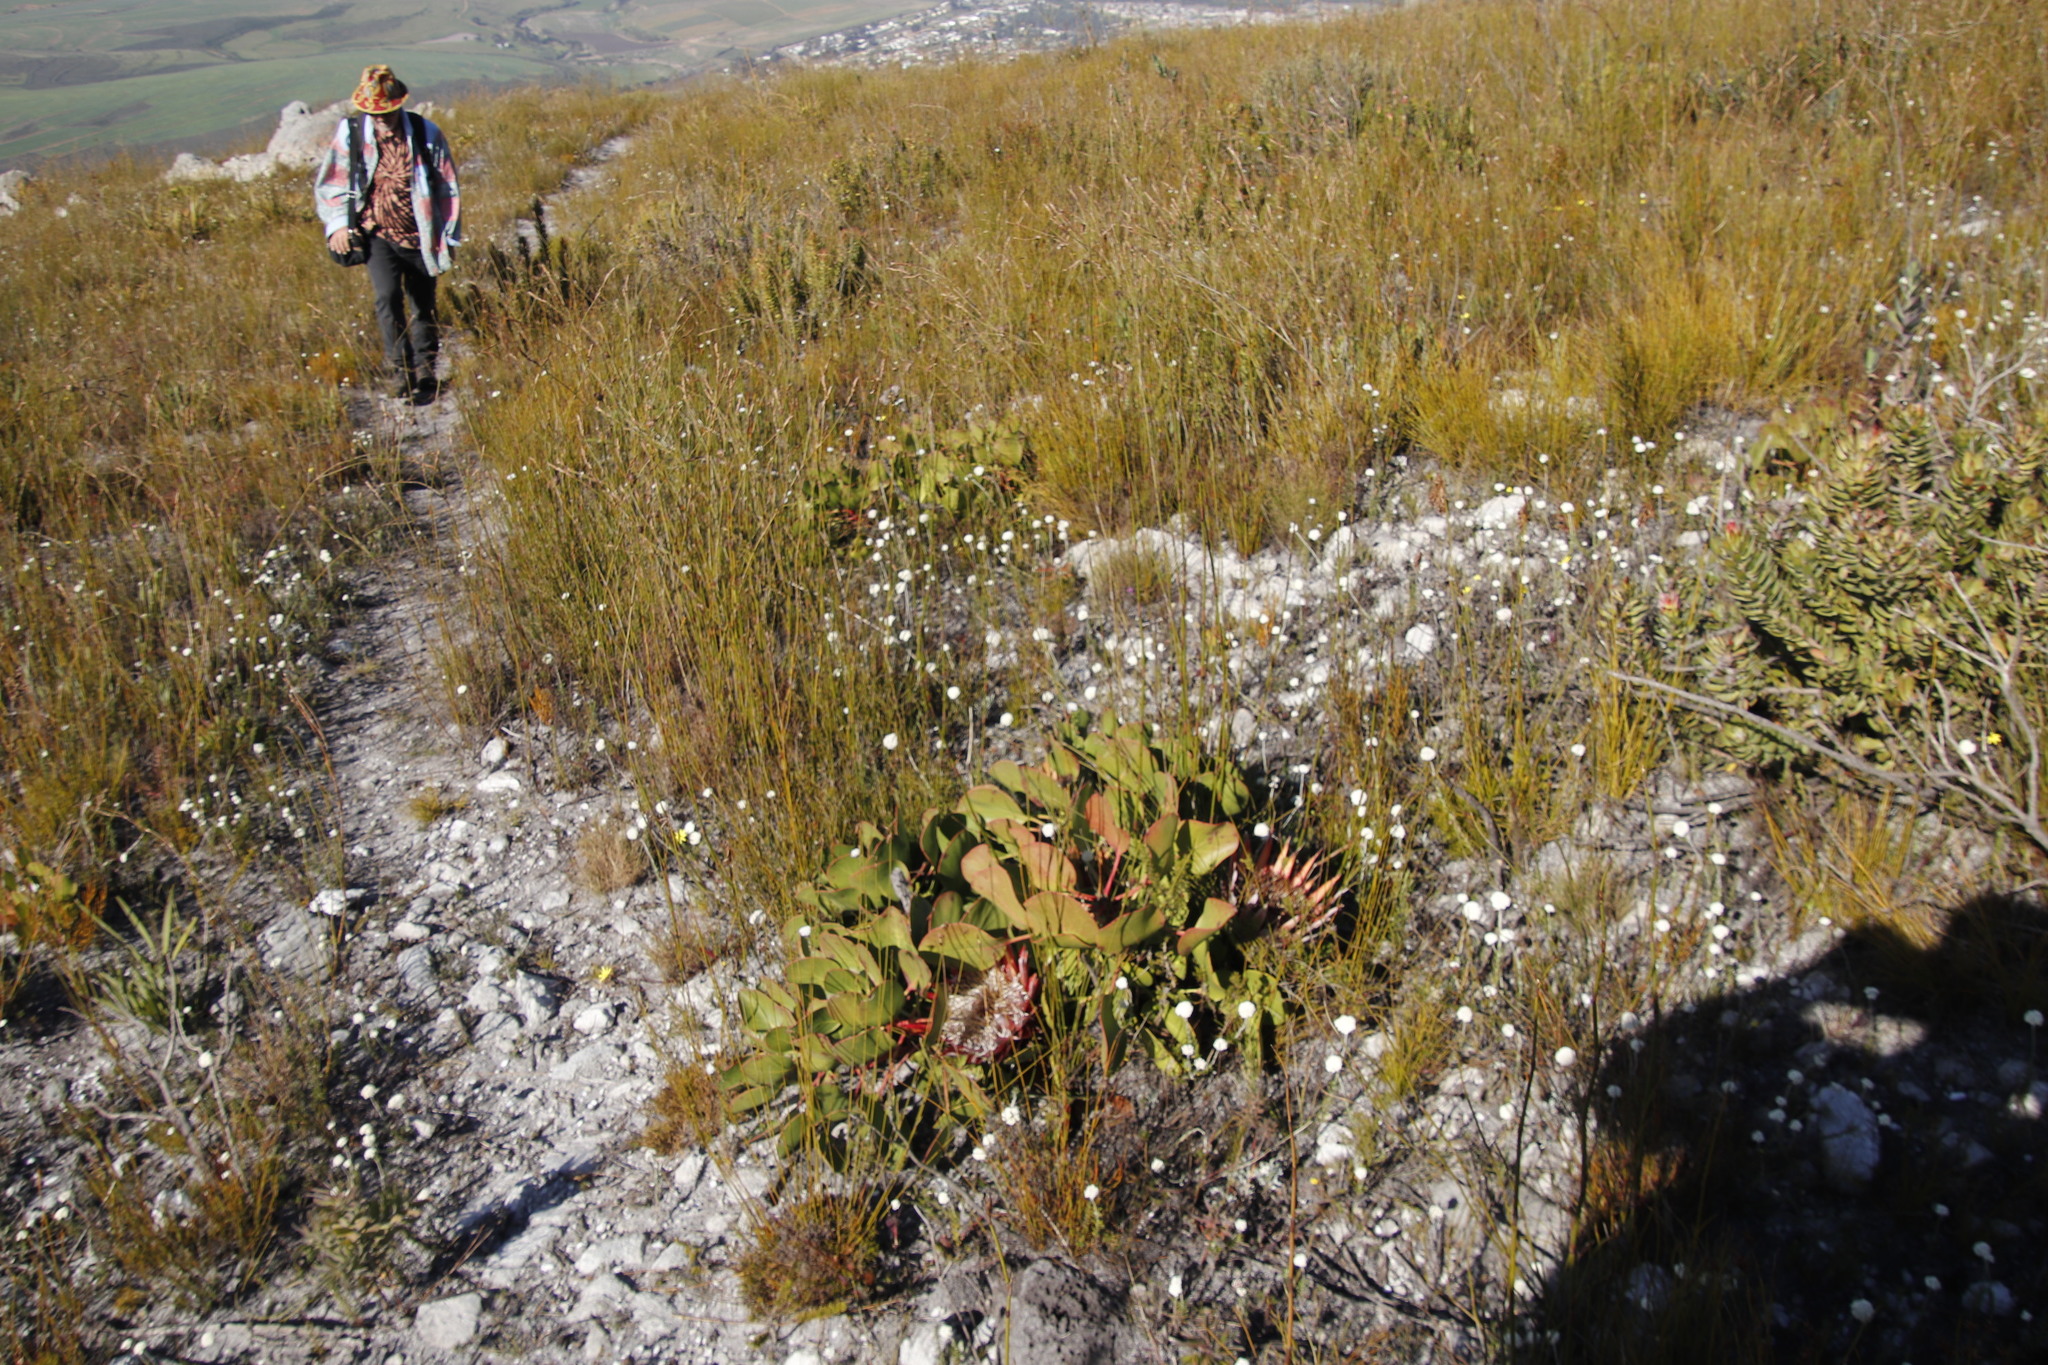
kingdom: Plantae
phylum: Tracheophyta
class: Magnoliopsida
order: Proteales
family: Proteaceae
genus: Protea
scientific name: Protea cynaroides
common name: King protea
